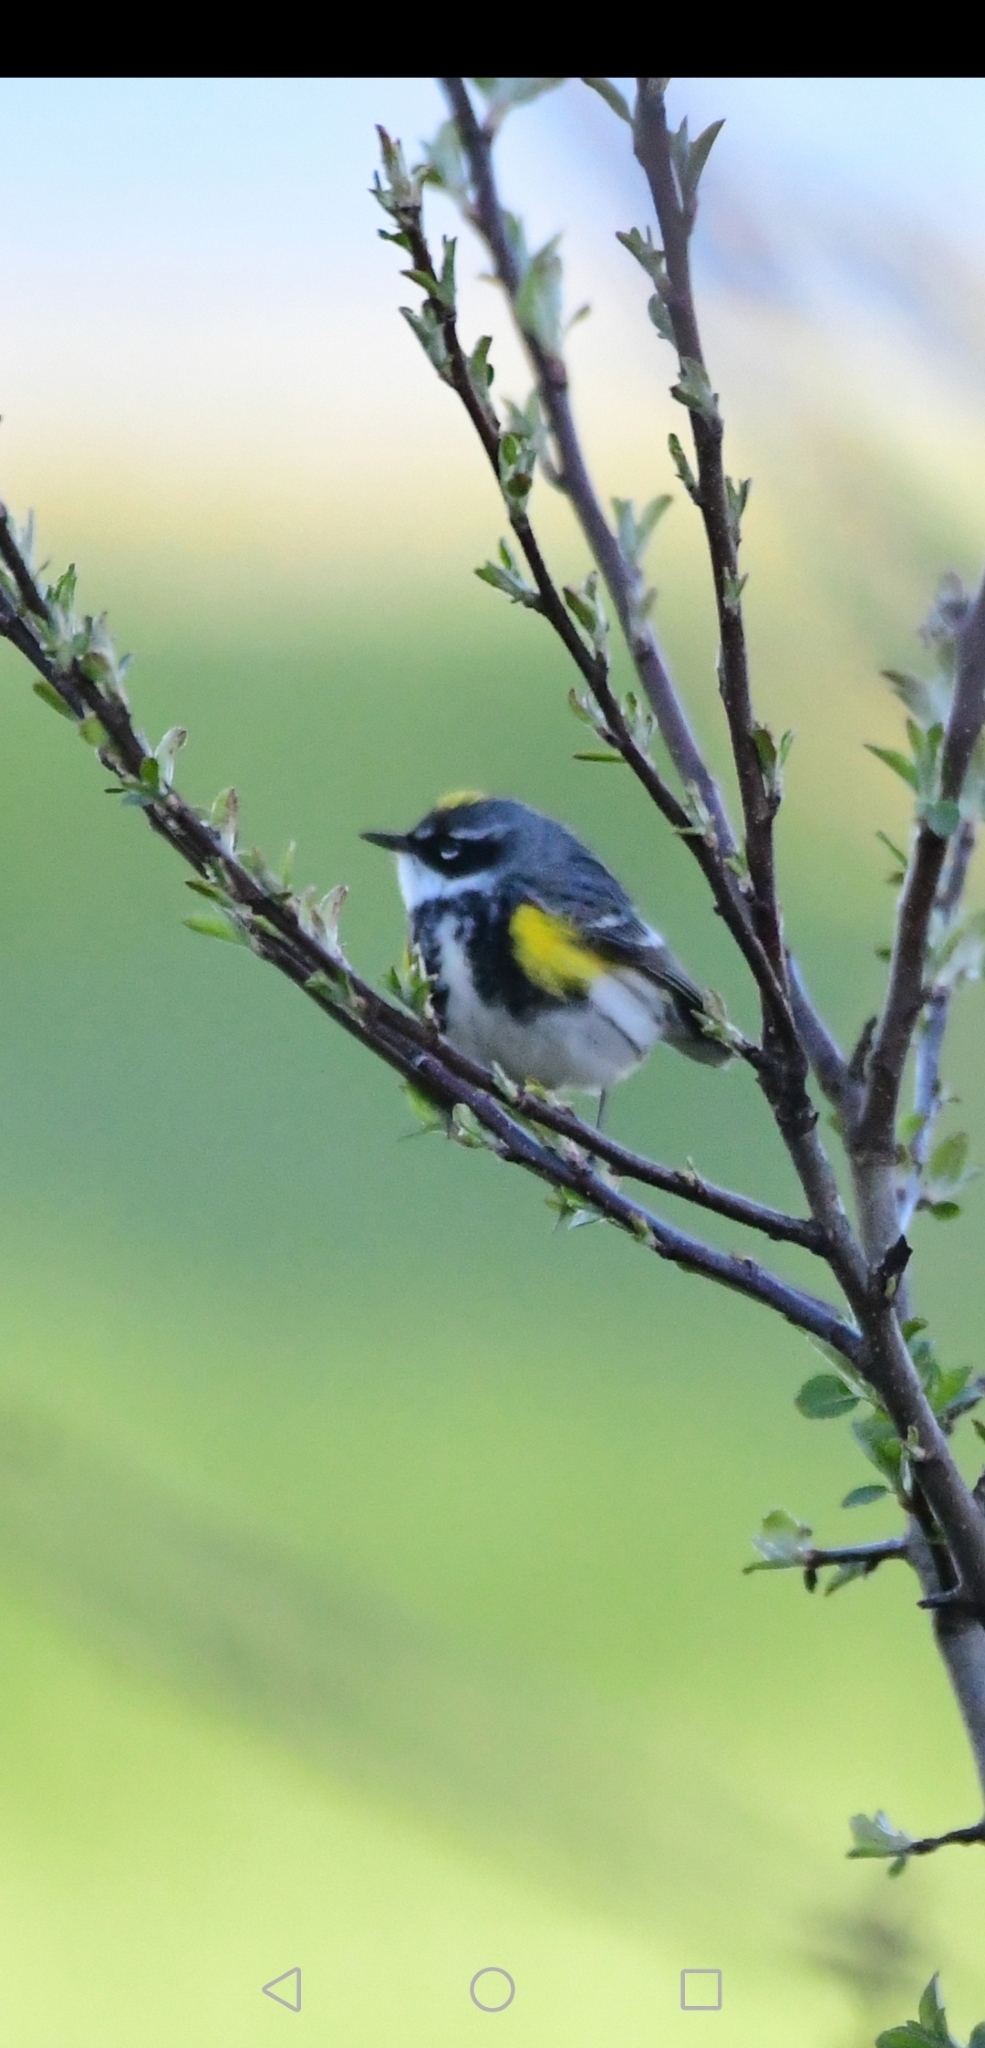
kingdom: Animalia
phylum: Chordata
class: Aves
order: Passeriformes
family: Parulidae
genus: Setophaga
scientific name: Setophaga coronata
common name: Myrtle warbler
